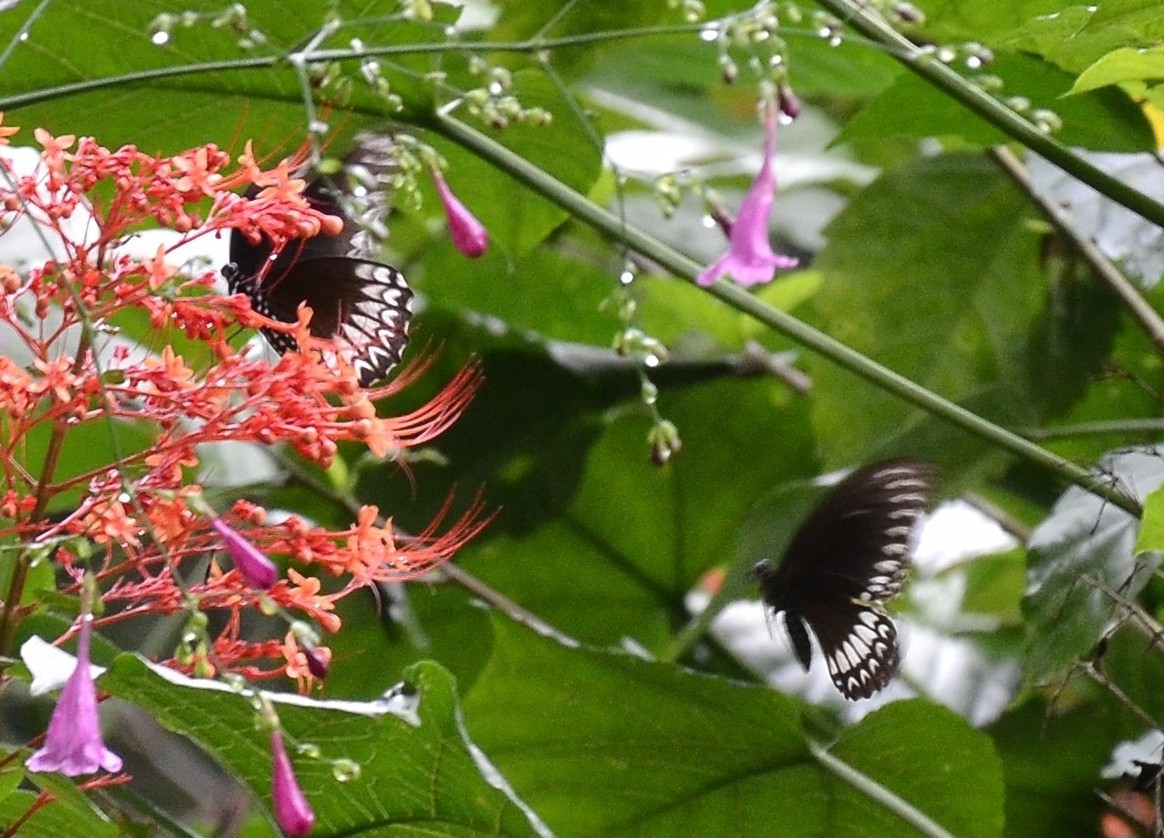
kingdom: Animalia
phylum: Arthropoda
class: Insecta
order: Lepidoptera
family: Papilionidae
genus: Papilio
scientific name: Papilio dravidarum
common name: Malabar raven
